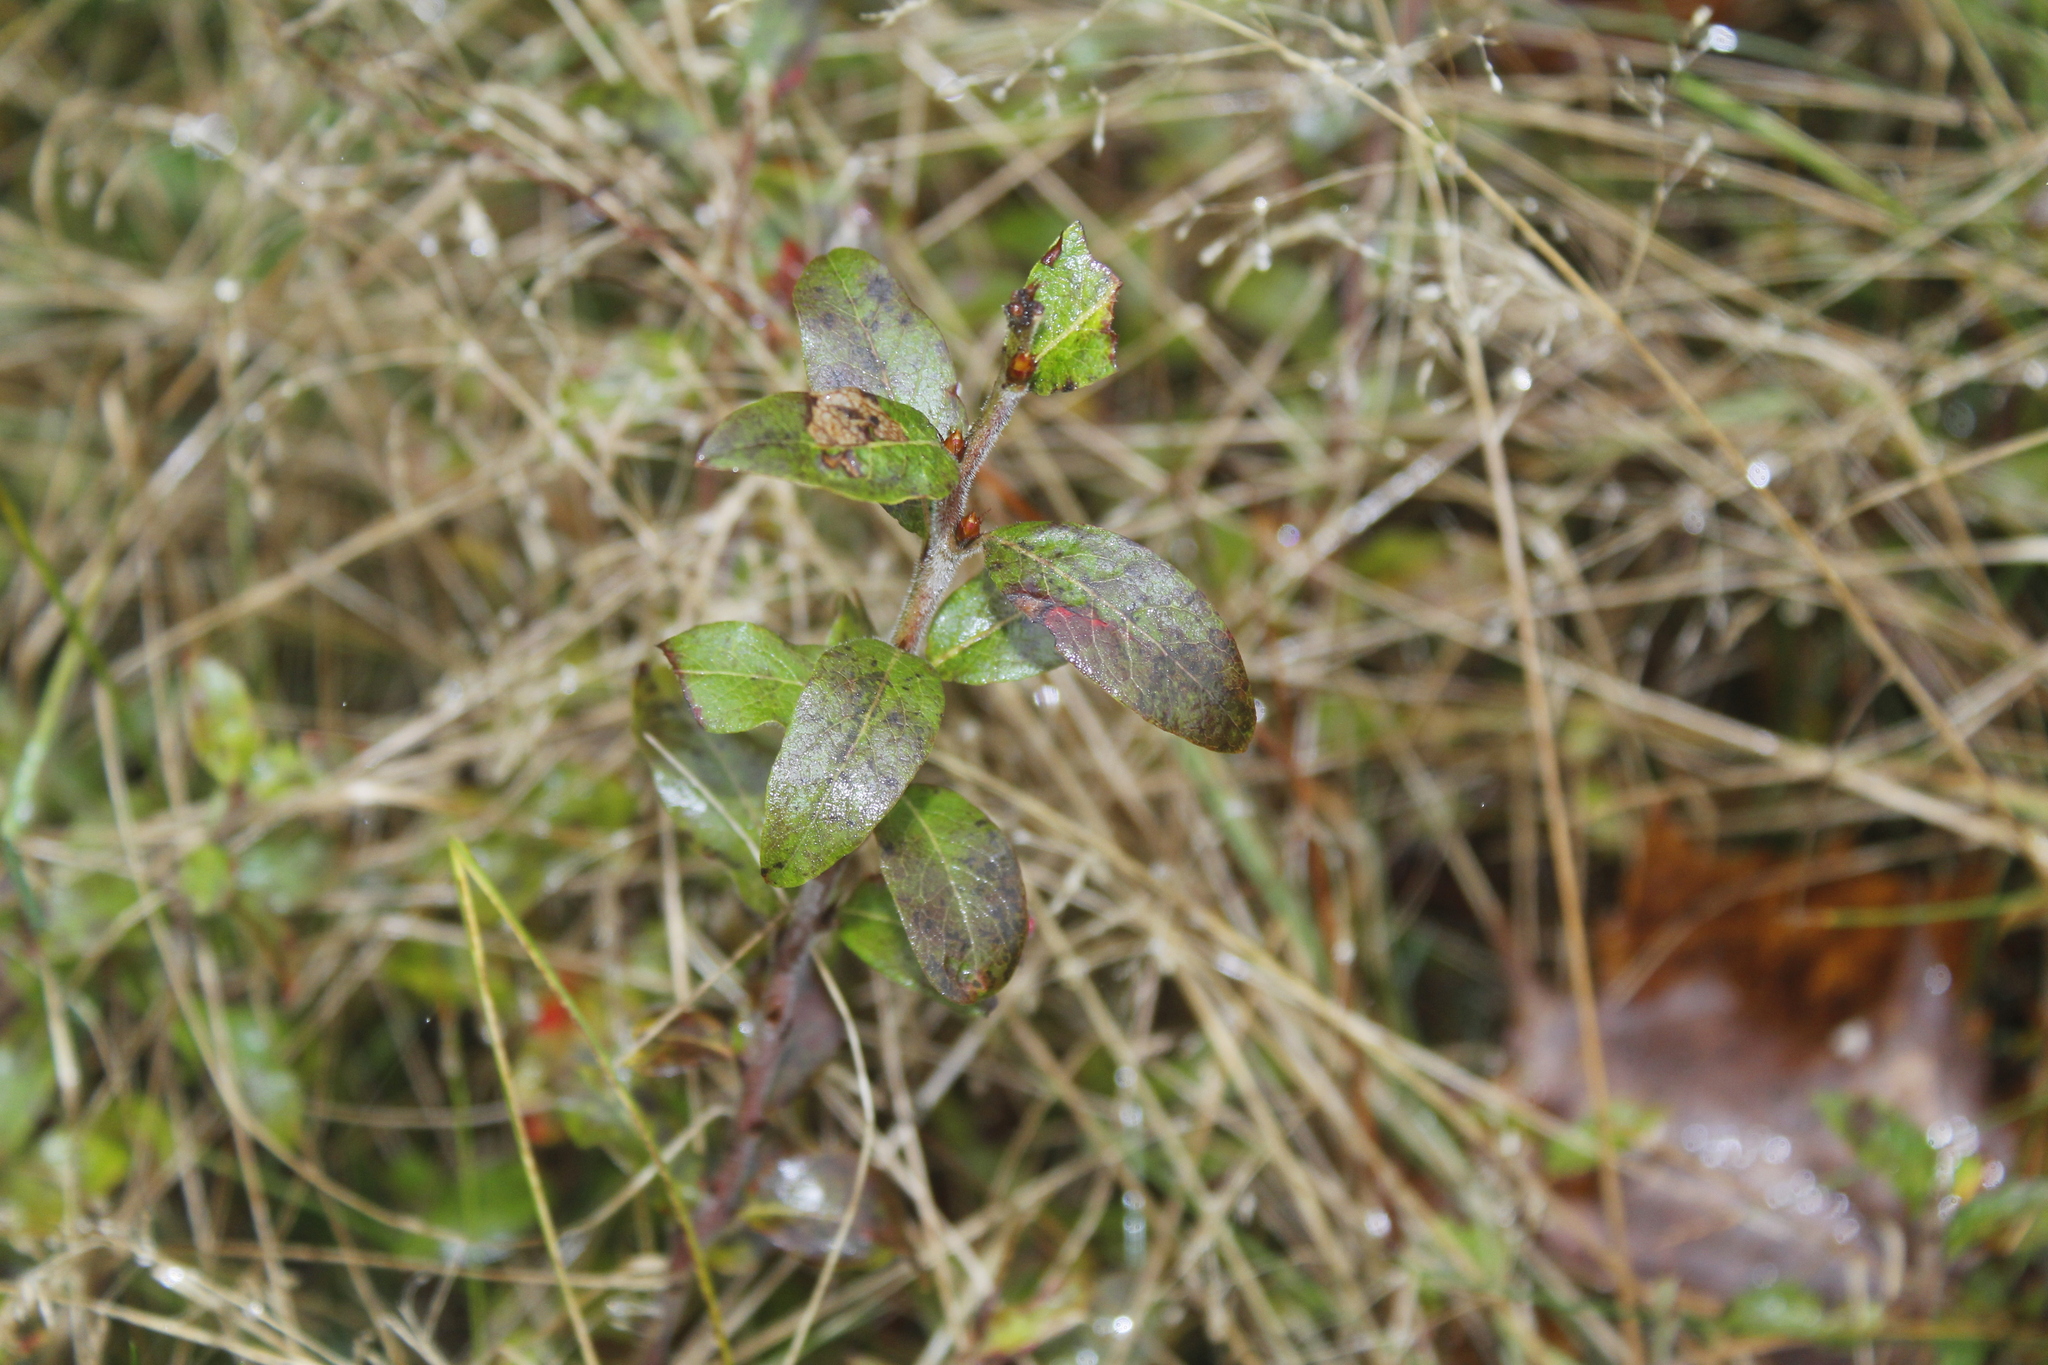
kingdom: Plantae
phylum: Tracheophyta
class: Magnoliopsida
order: Ericales
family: Ericaceae
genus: Vaccinium
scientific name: Vaccinium myrtilloides
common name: Canada blueberry
